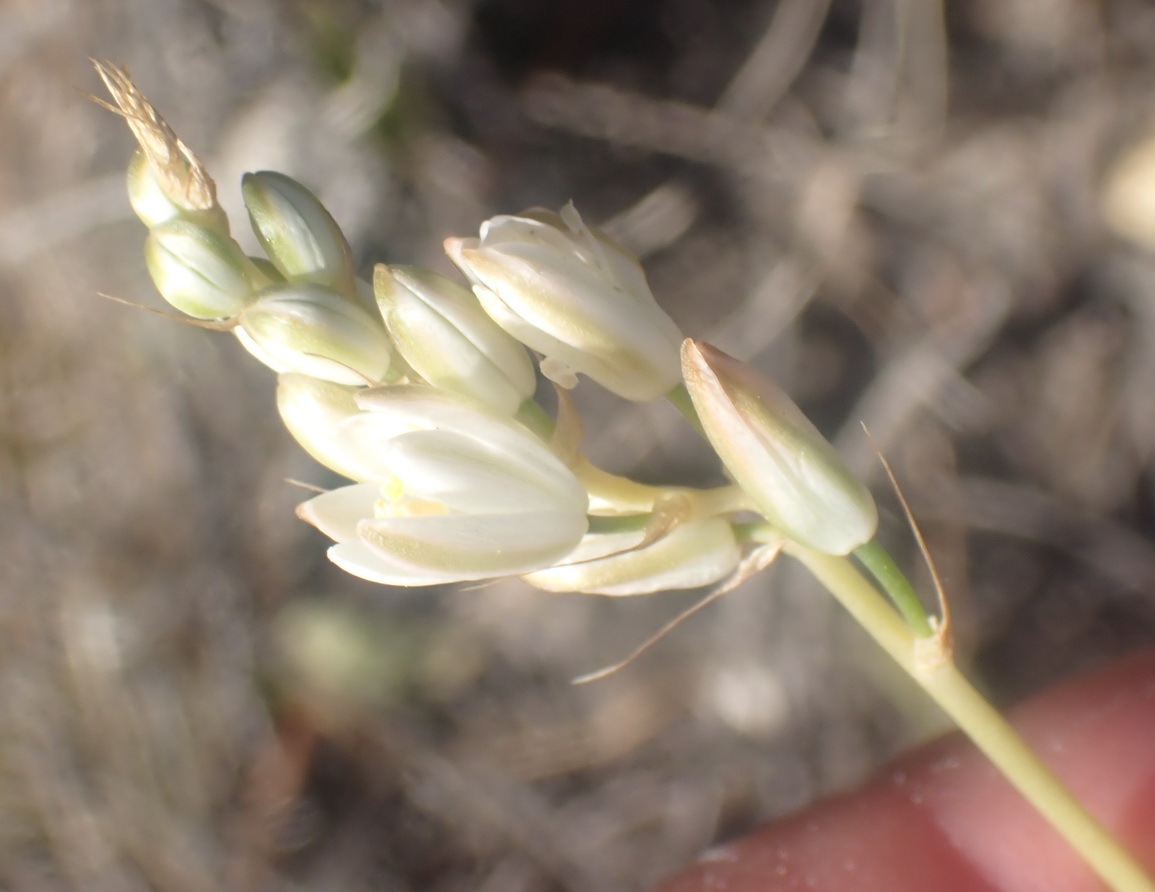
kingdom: Plantae
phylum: Tracheophyta
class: Liliopsida
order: Asparagales
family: Asparagaceae
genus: Ornithogalum
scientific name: Ornithogalum graminifolium
